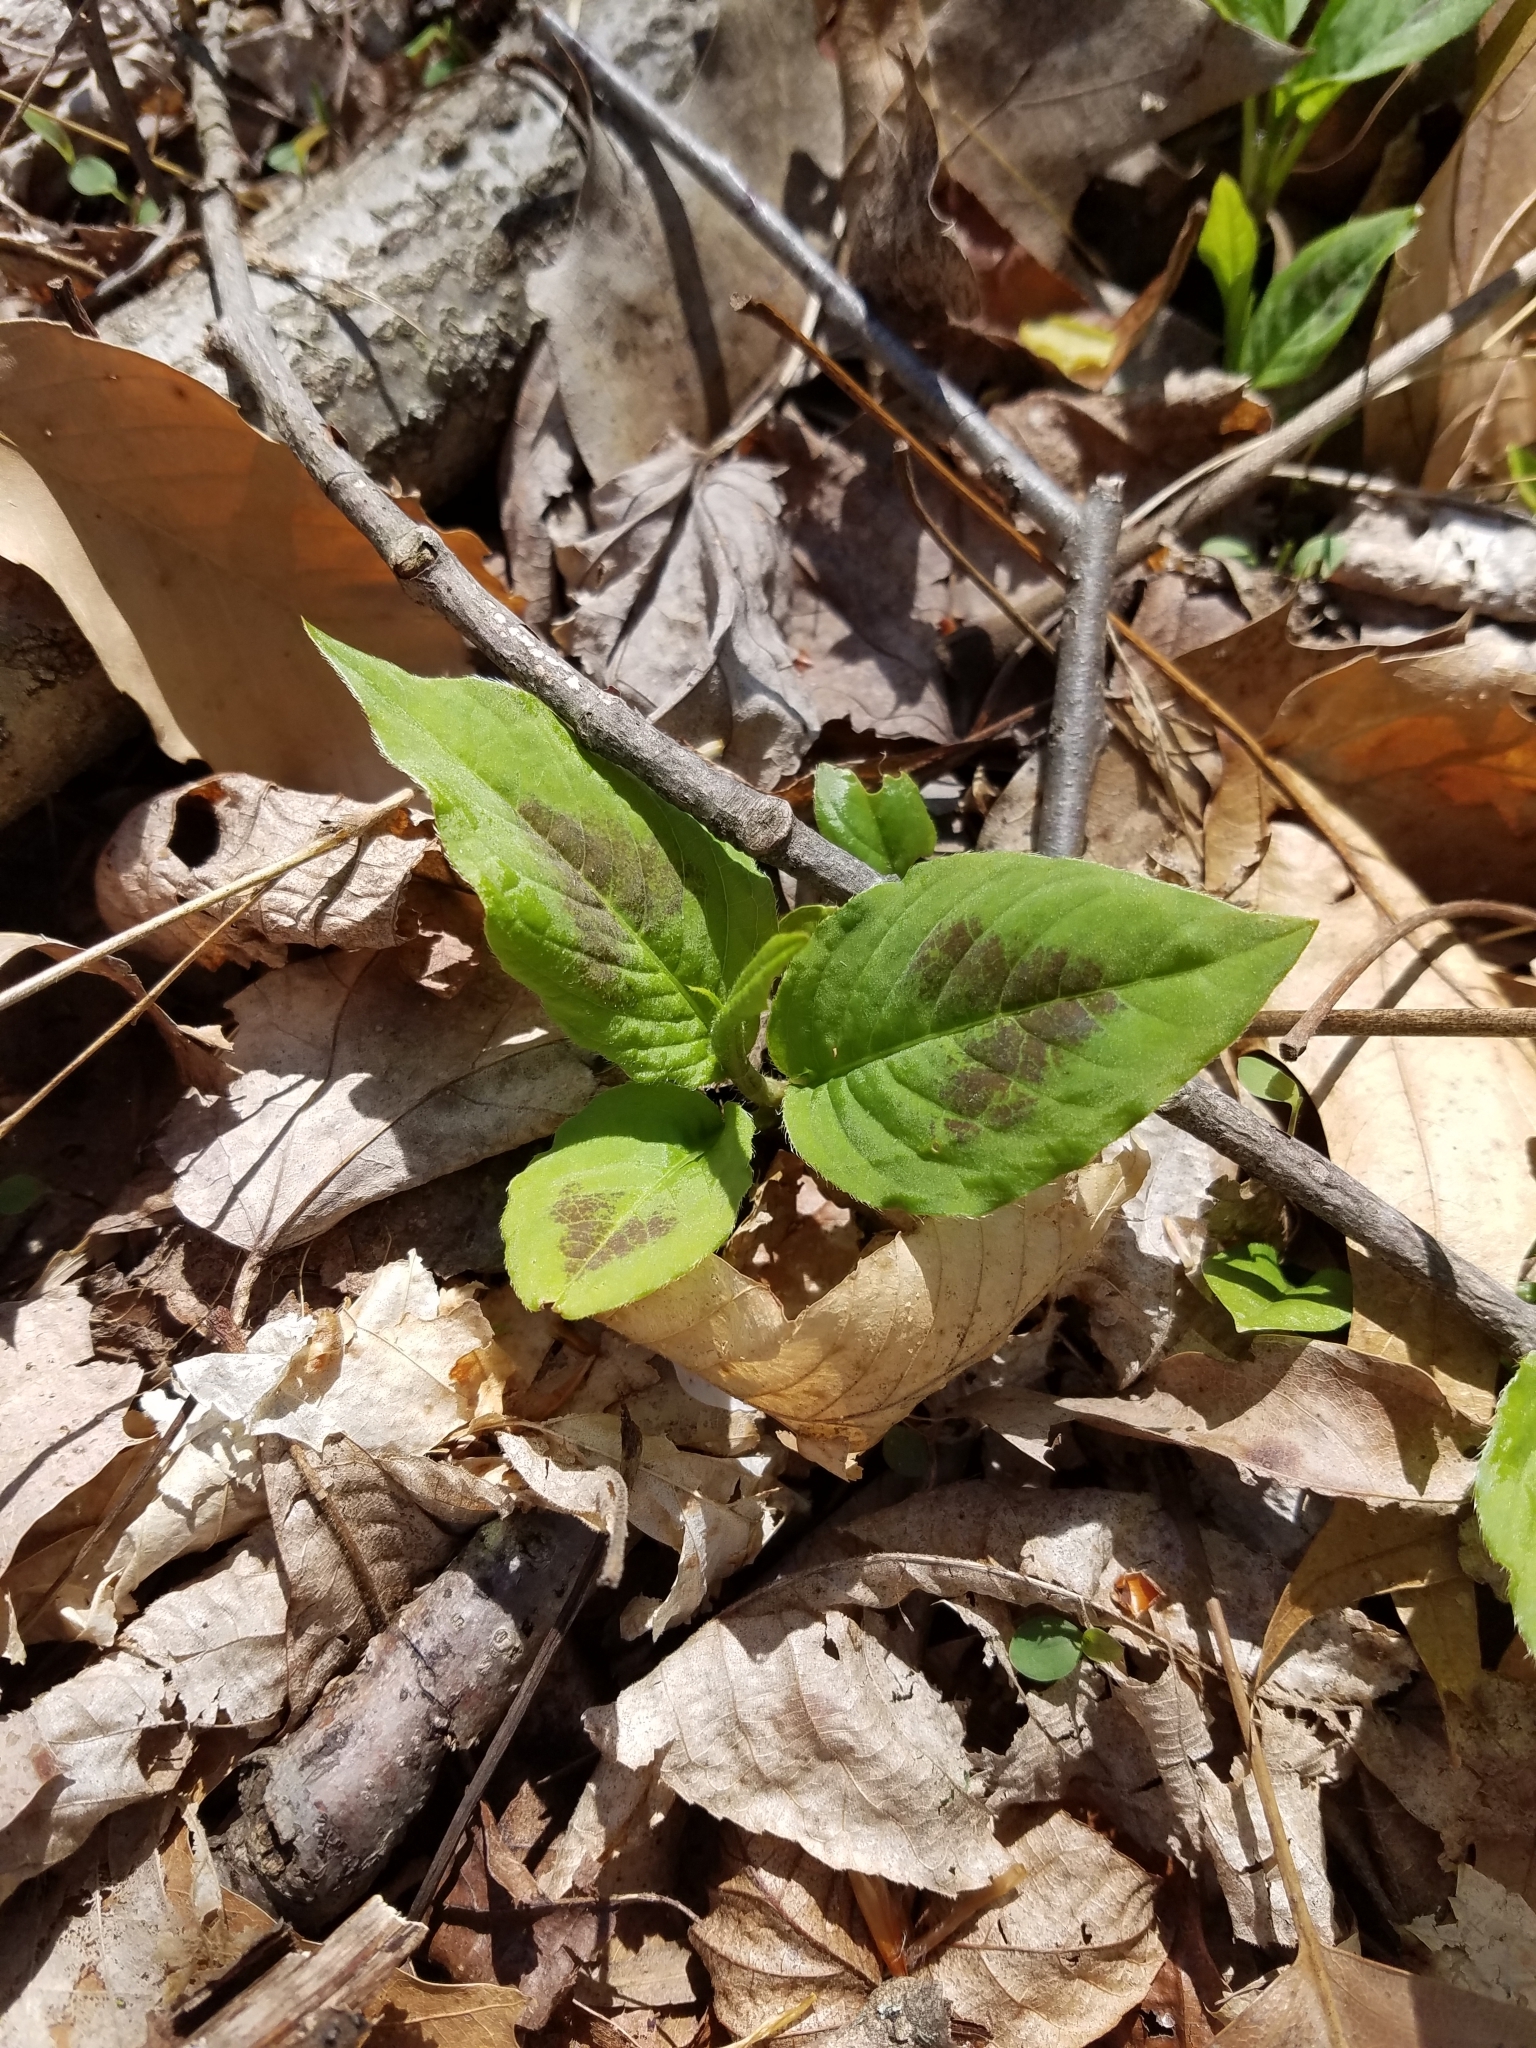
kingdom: Plantae
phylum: Tracheophyta
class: Magnoliopsida
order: Caryophyllales
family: Polygonaceae
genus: Persicaria
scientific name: Persicaria virginiana
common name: Jumpseed
